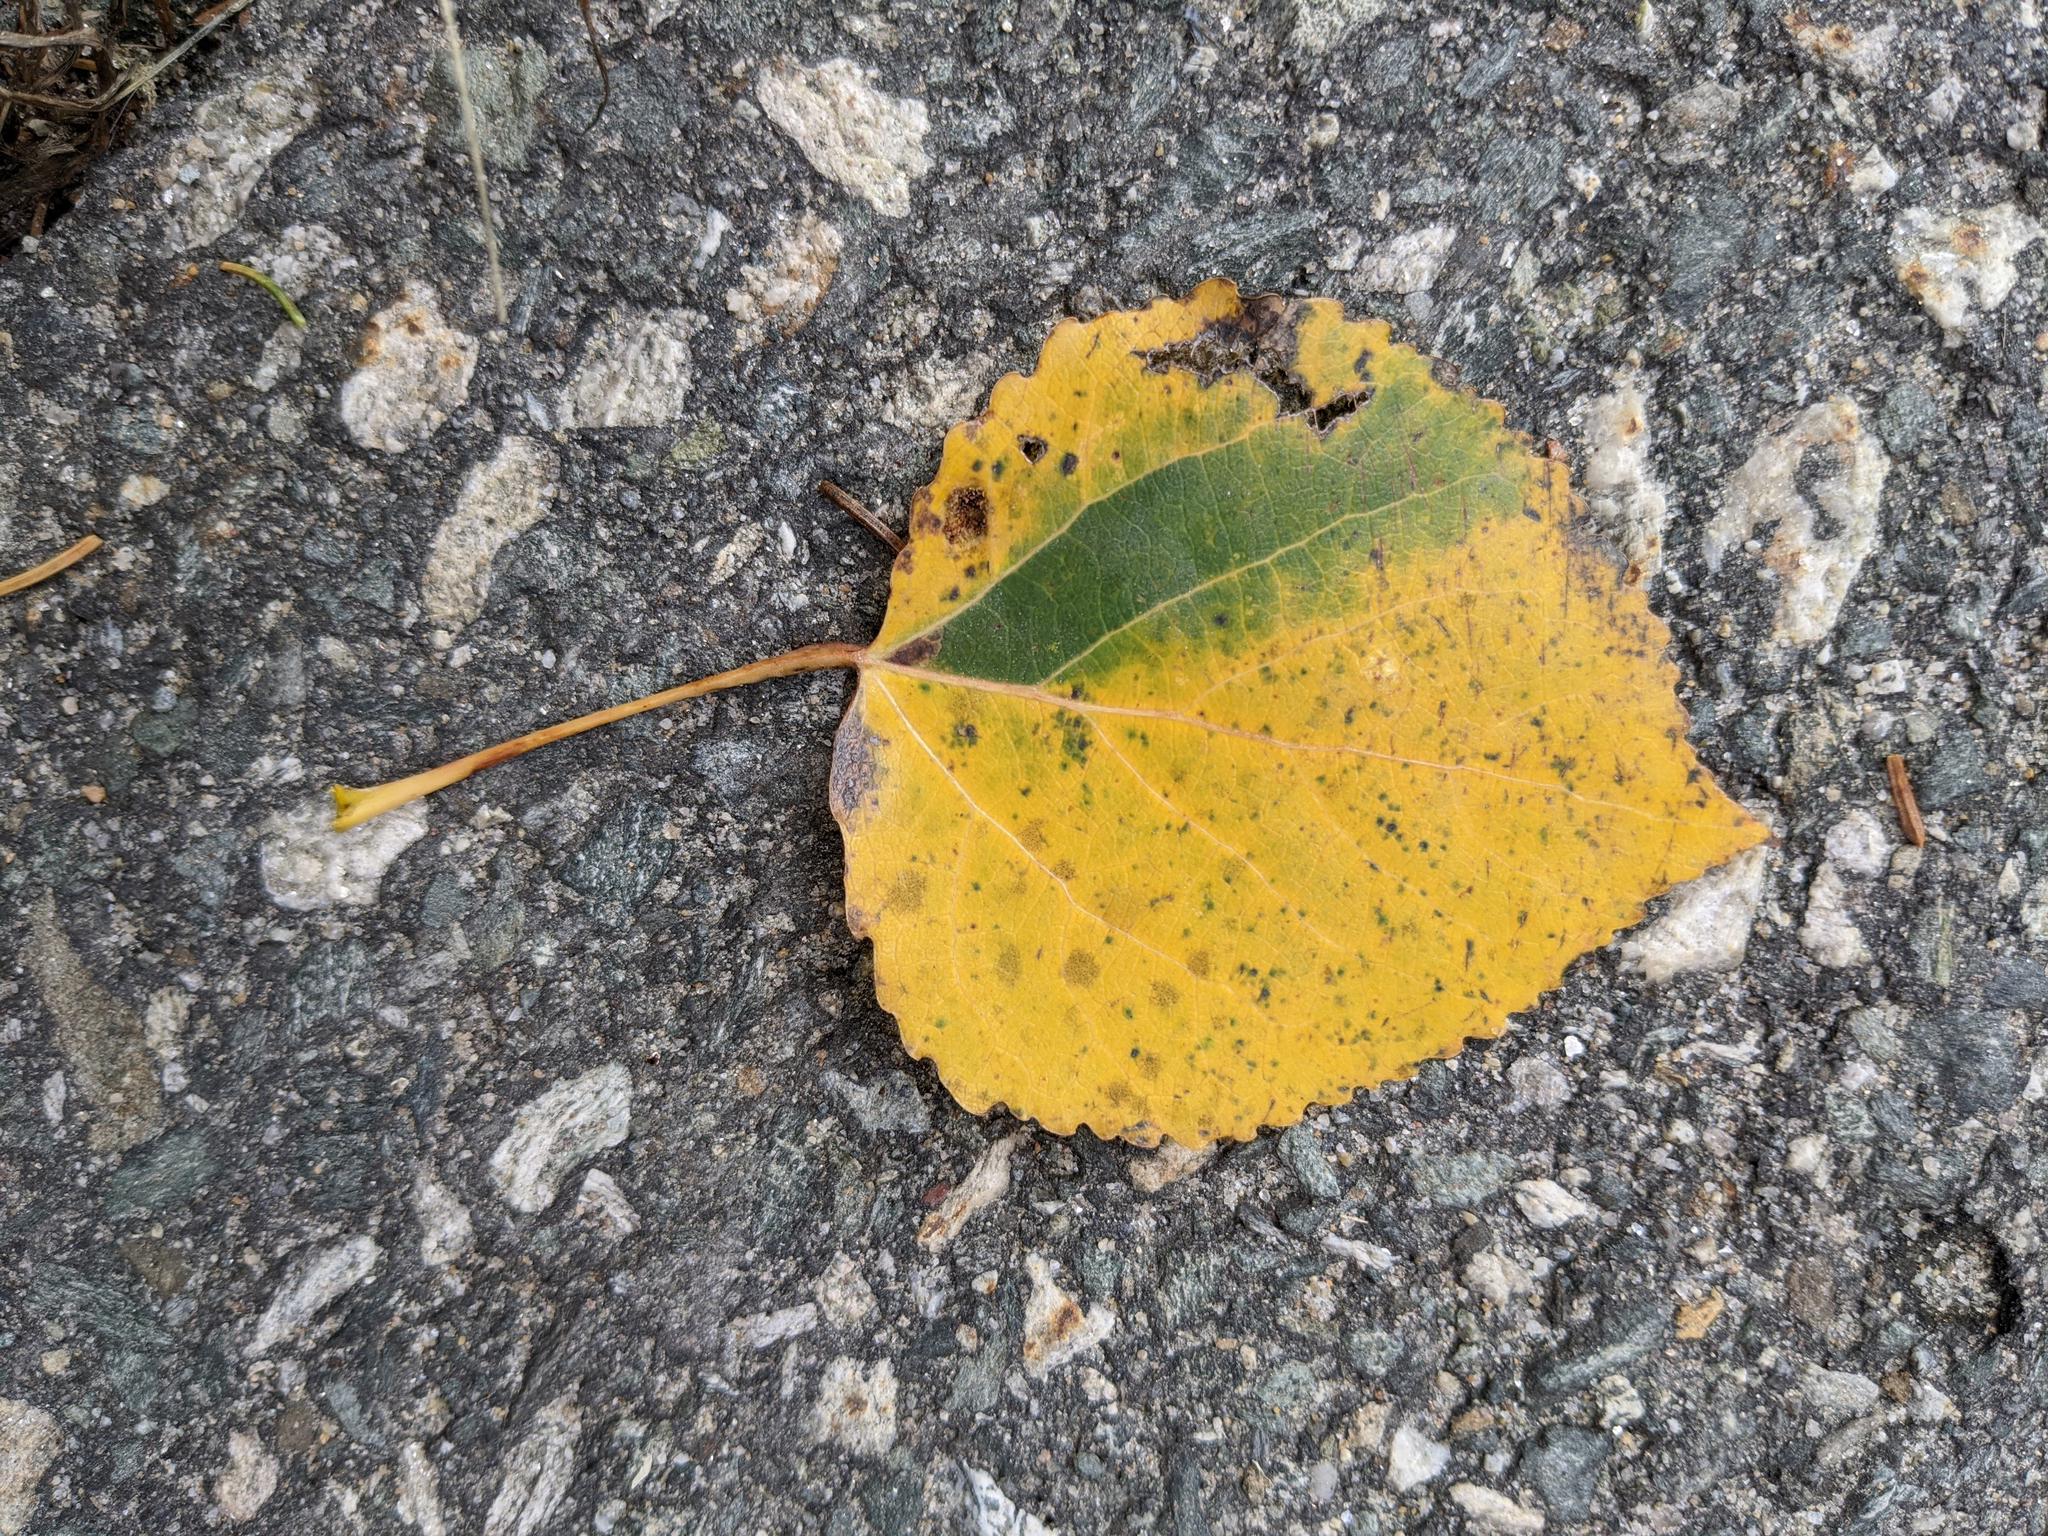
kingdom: Plantae
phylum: Tracheophyta
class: Magnoliopsida
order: Malpighiales
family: Salicaceae
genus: Populus
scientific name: Populus tremuloides
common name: Quaking aspen
